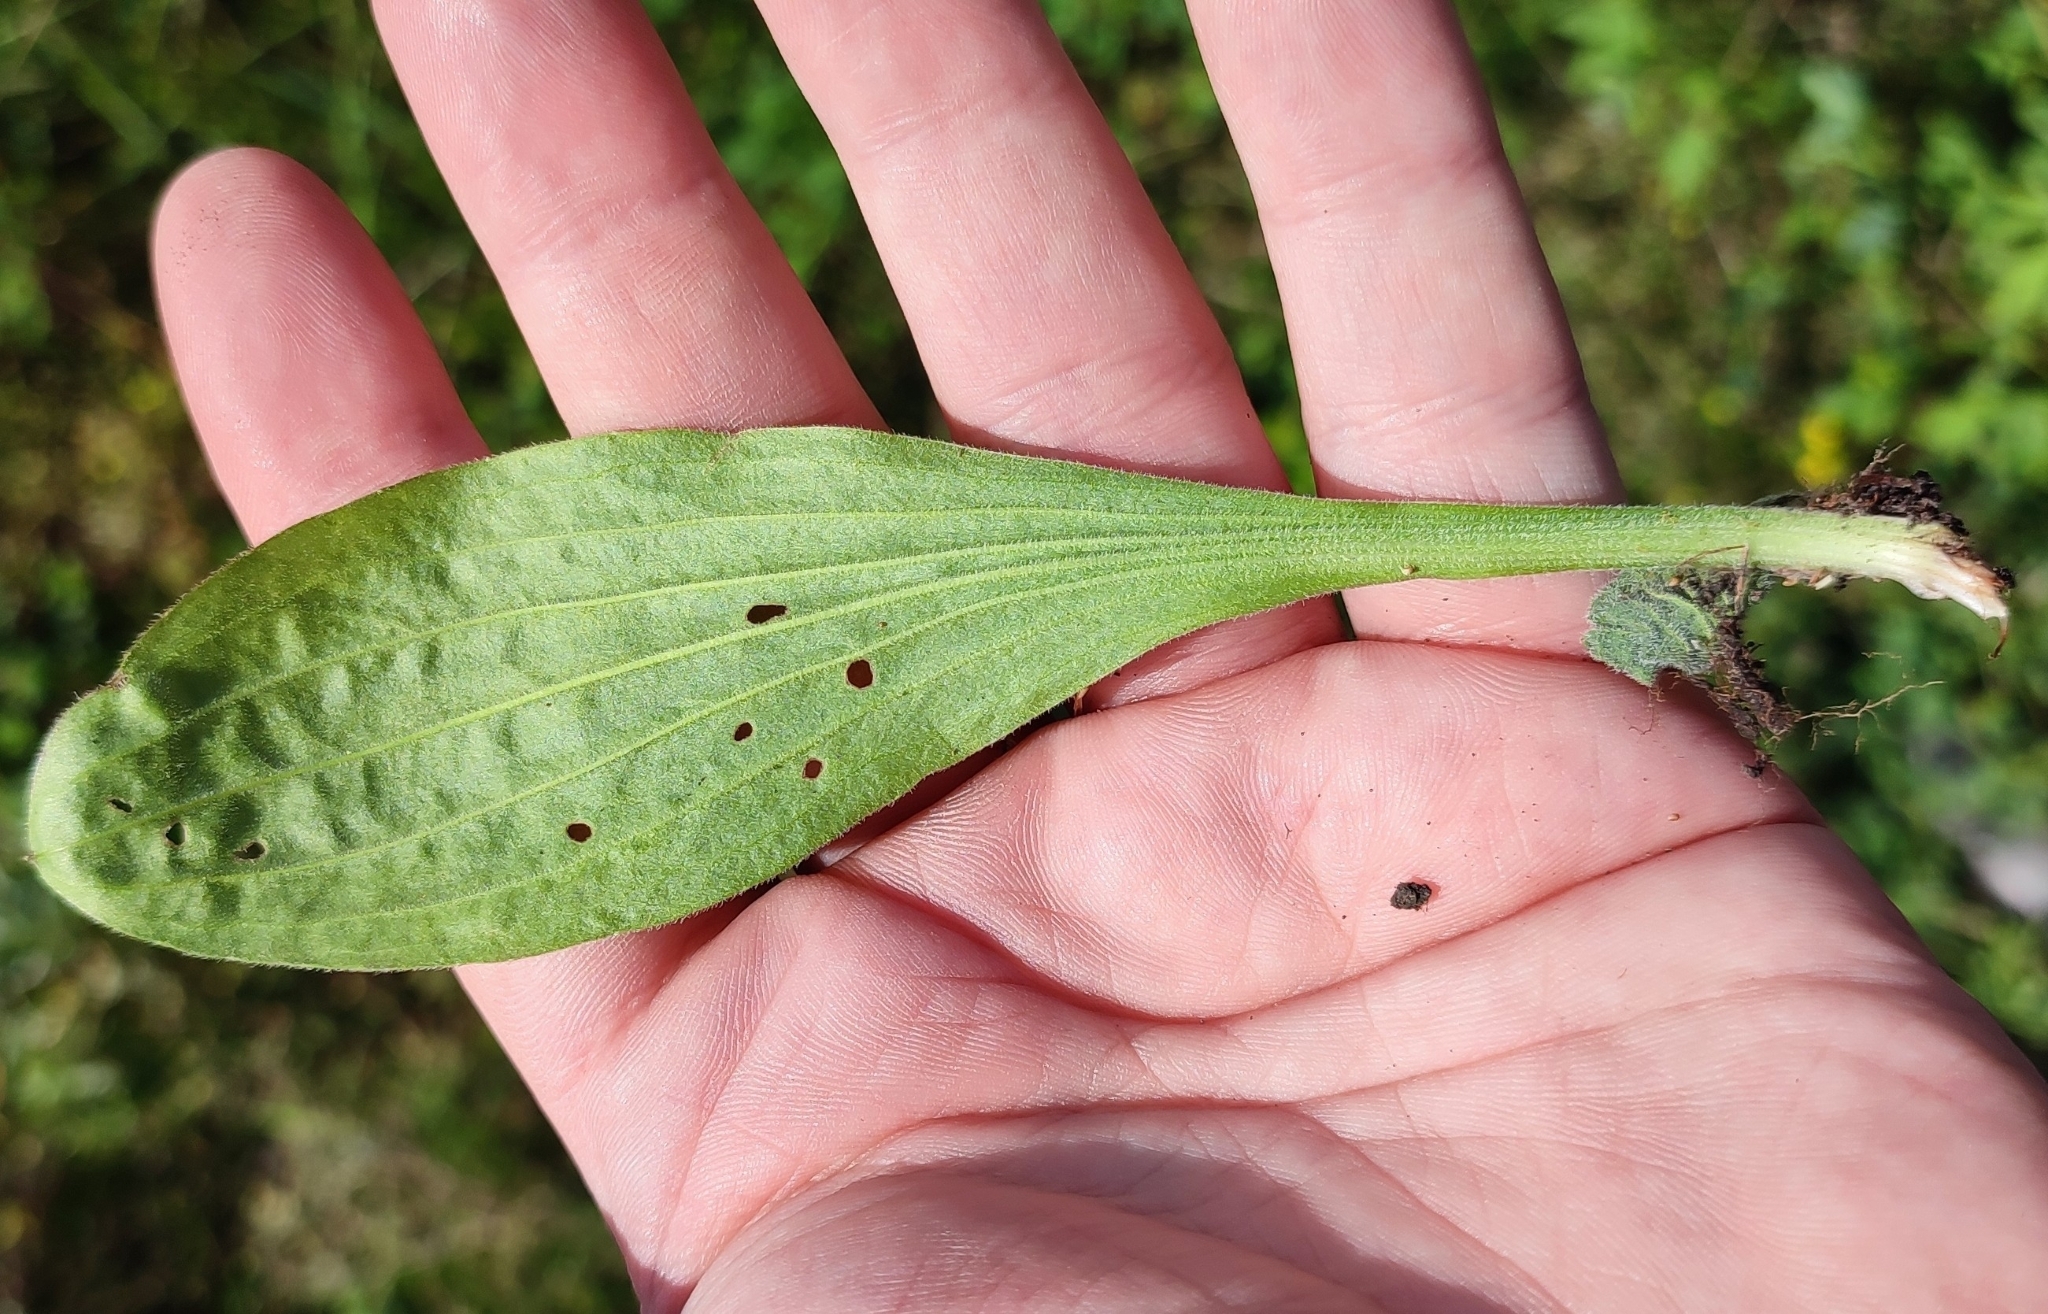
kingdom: Plantae
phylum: Tracheophyta
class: Magnoliopsida
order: Lamiales
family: Plantaginaceae
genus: Plantago
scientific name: Plantago media
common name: Hoary plantain
